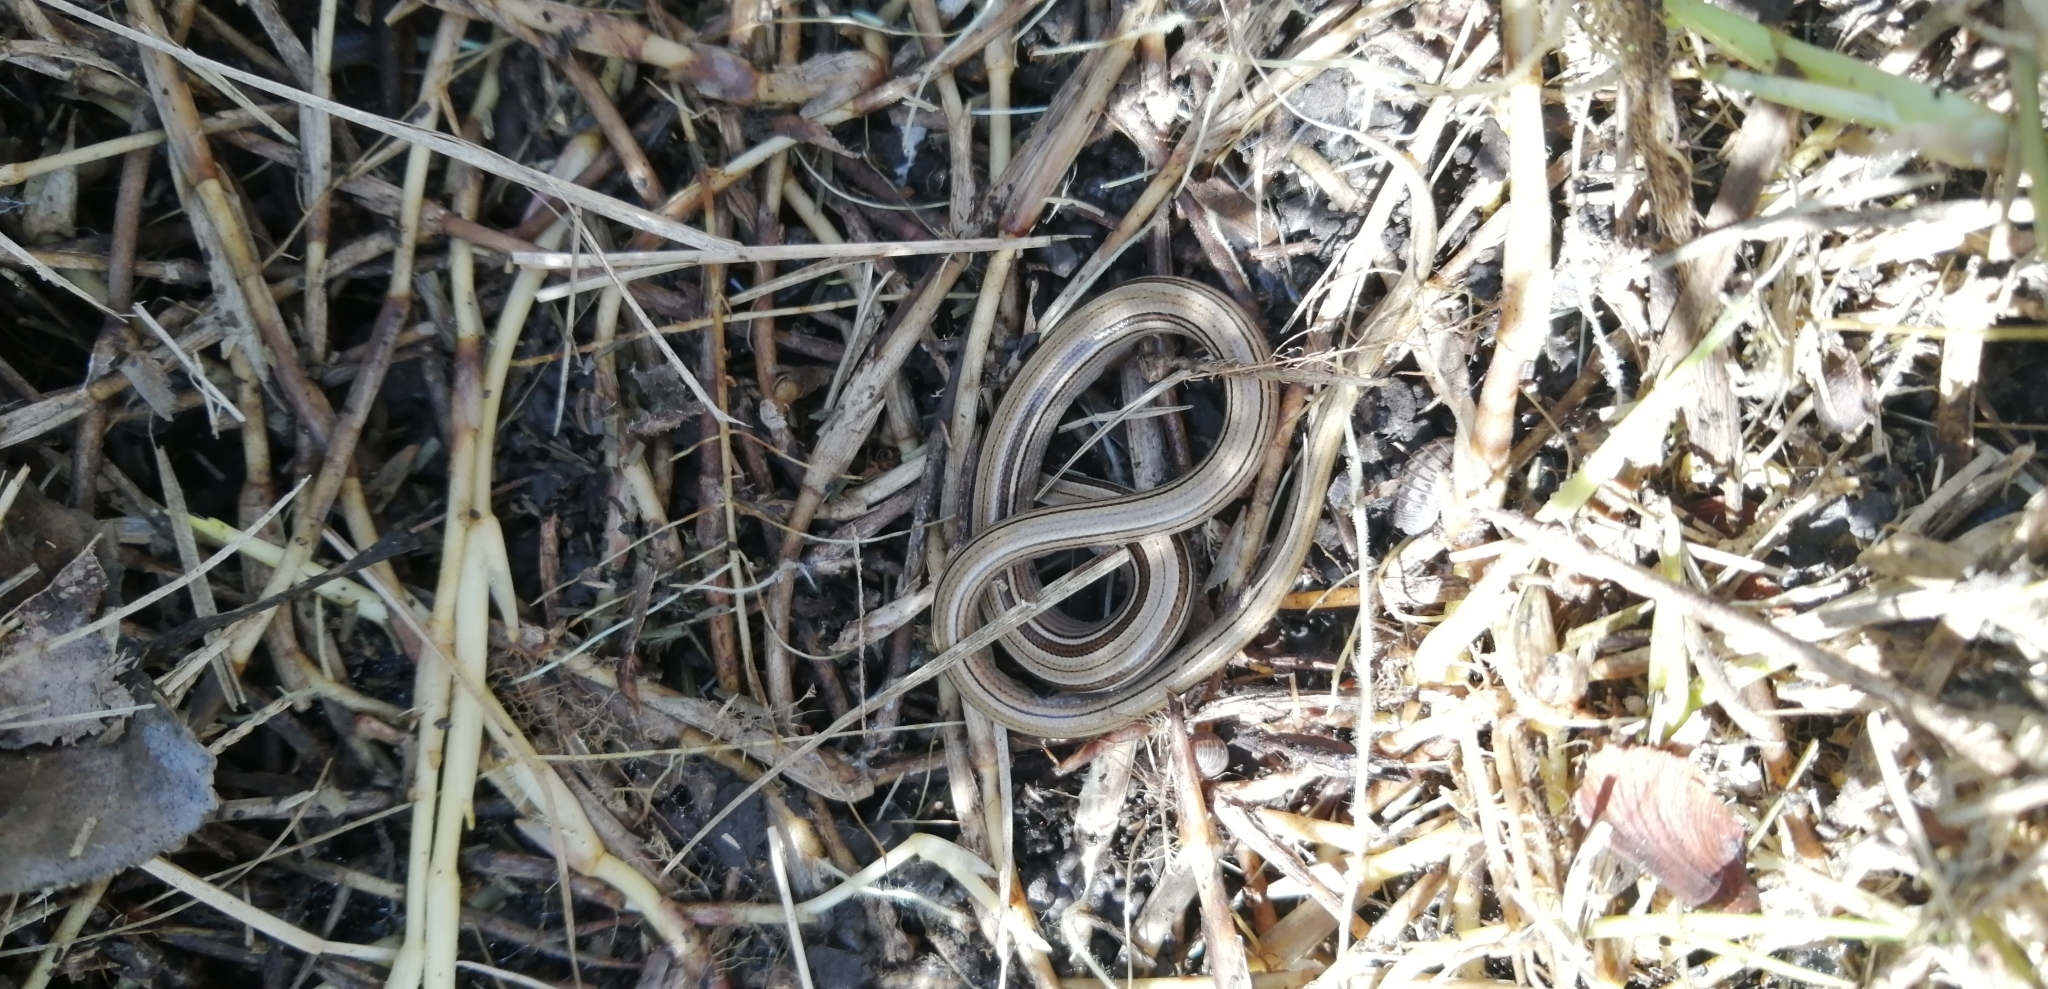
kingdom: Animalia
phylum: Chordata
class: Squamata
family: Diploglossidae
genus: Ophiodes
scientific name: Ophiodes vertebralis
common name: Jointed worm lizard
